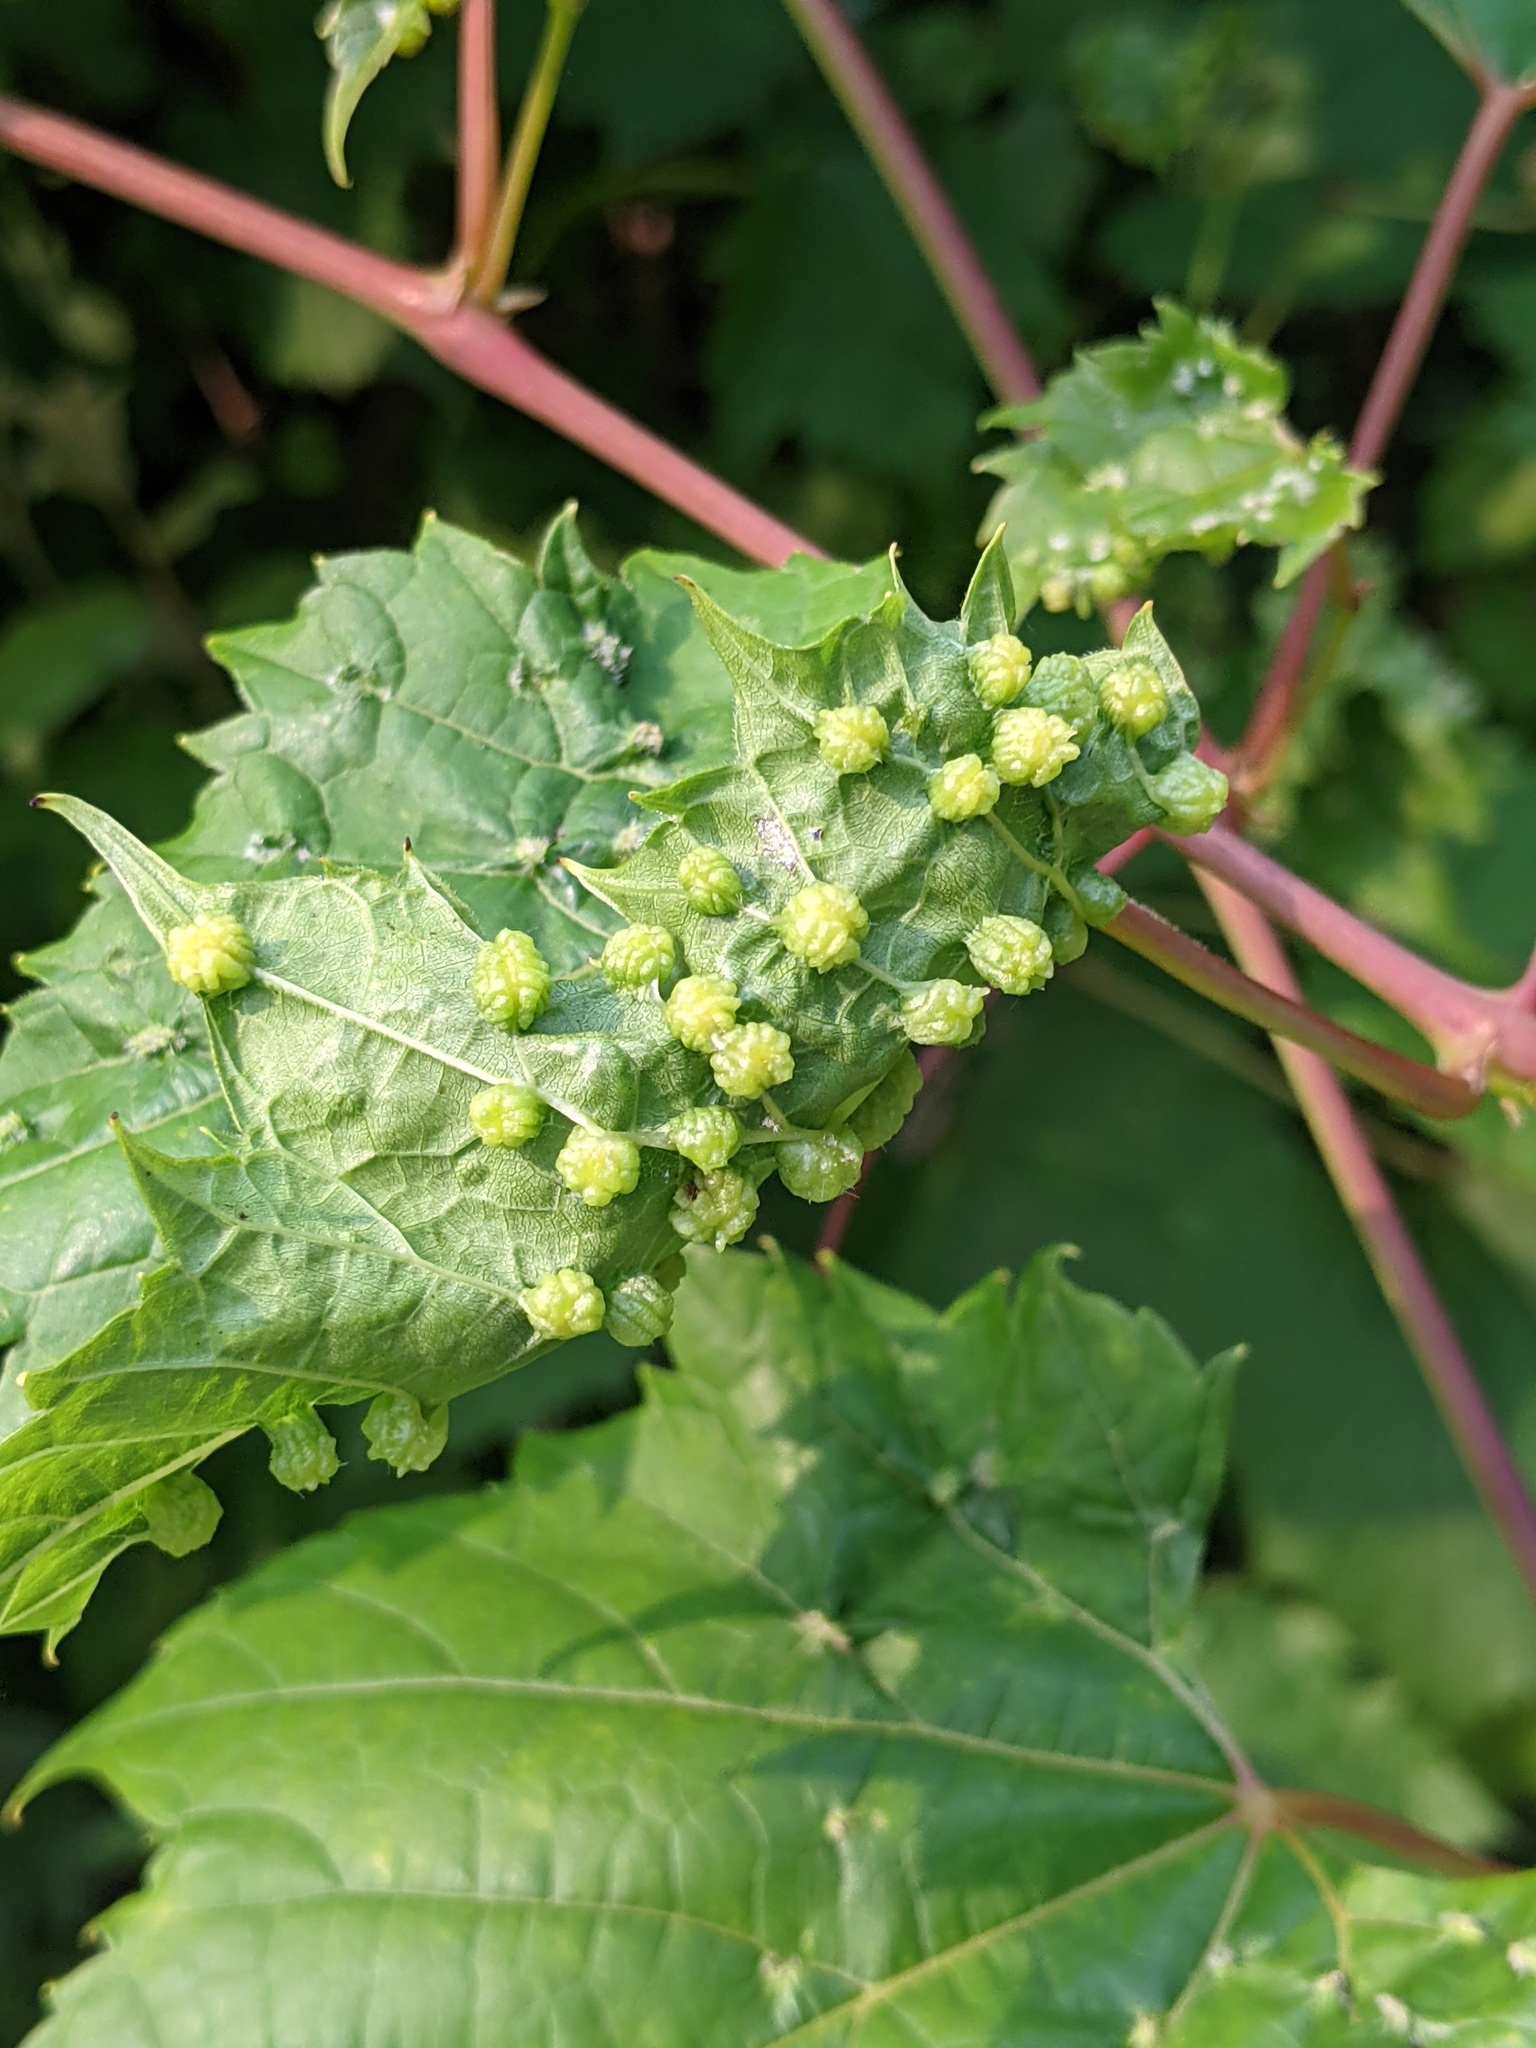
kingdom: Animalia
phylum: Arthropoda
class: Insecta
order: Hemiptera
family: Phylloxeridae
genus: Daktulosphaira
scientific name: Daktulosphaira vitifoliae
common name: Grape phylloxera
